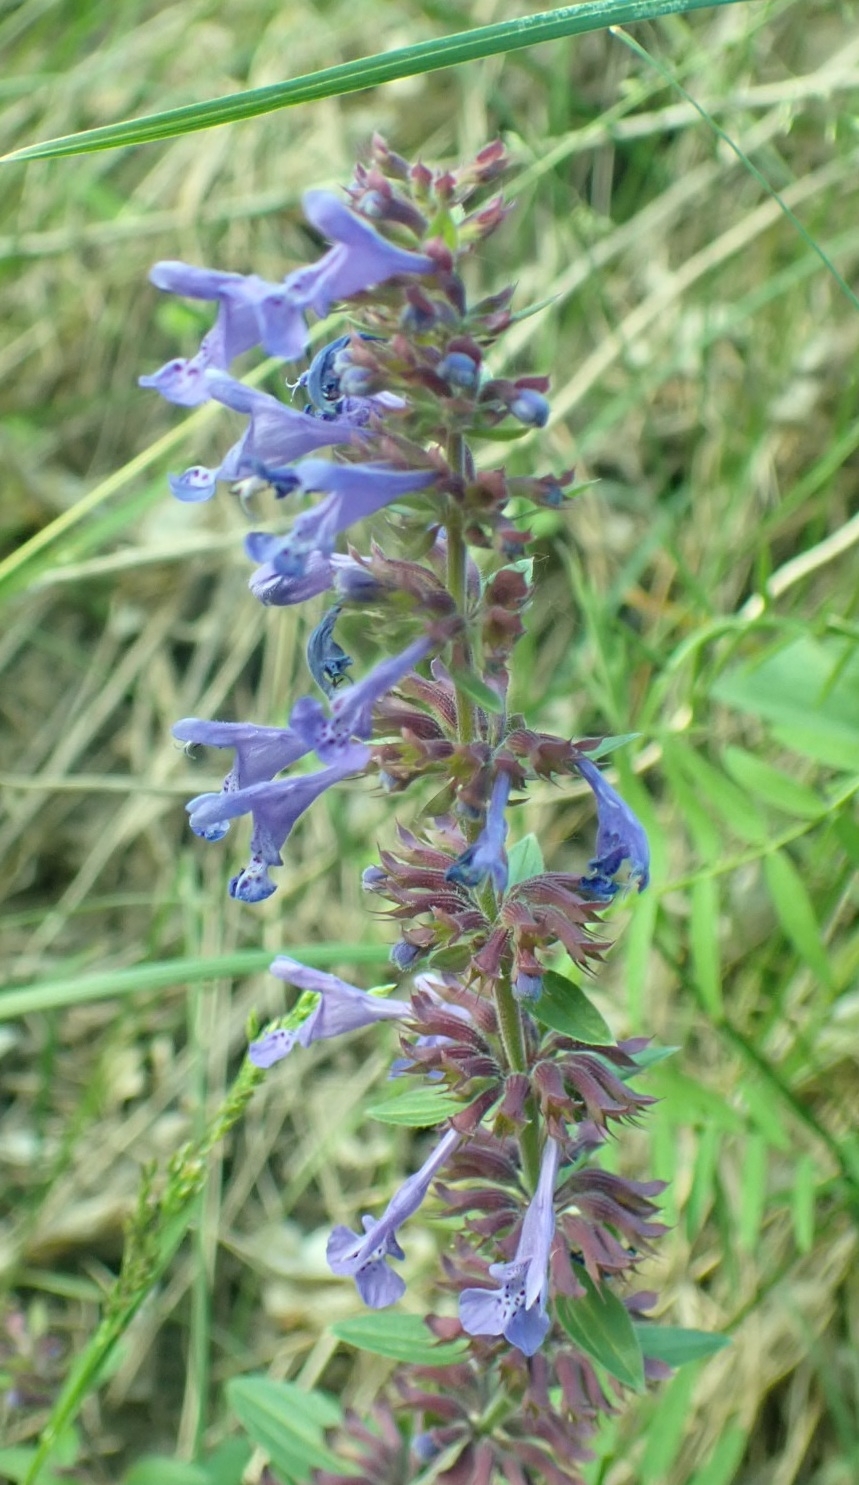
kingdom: Plantae
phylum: Tracheophyta
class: Magnoliopsida
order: Lamiales
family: Lamiaceae
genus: Dracocephalum
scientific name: Dracocephalum nutans
